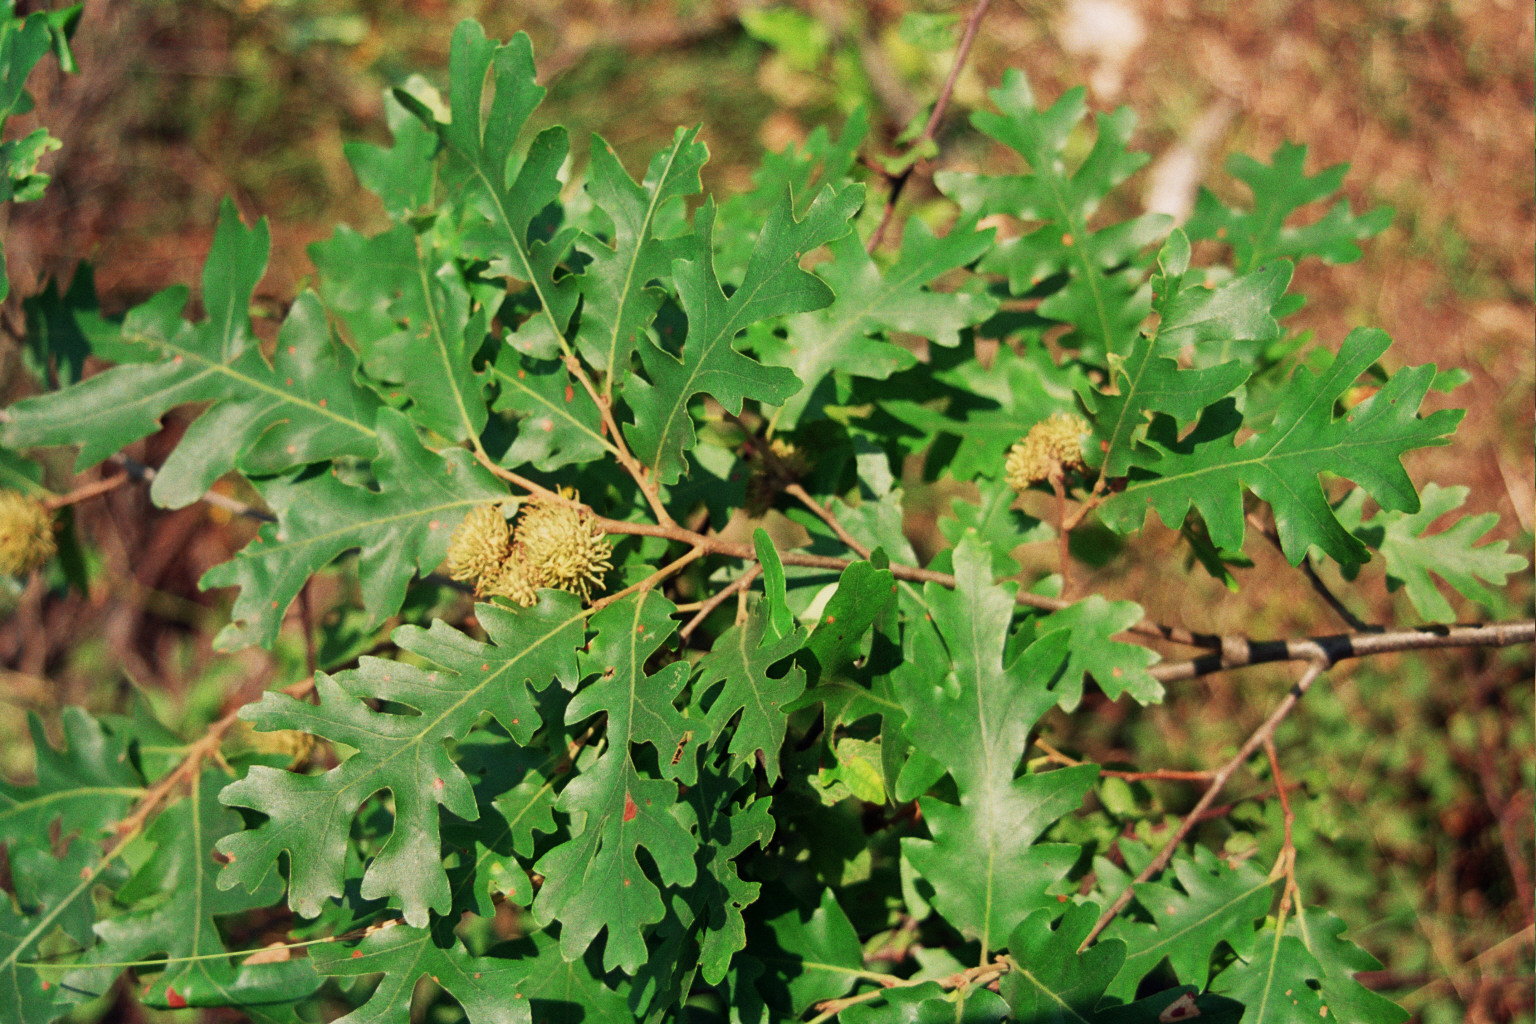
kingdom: Plantae
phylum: Tracheophyta
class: Magnoliopsida
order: Fagales
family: Fagaceae
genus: Quercus
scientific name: Quercus cerris
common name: Turkey oak
